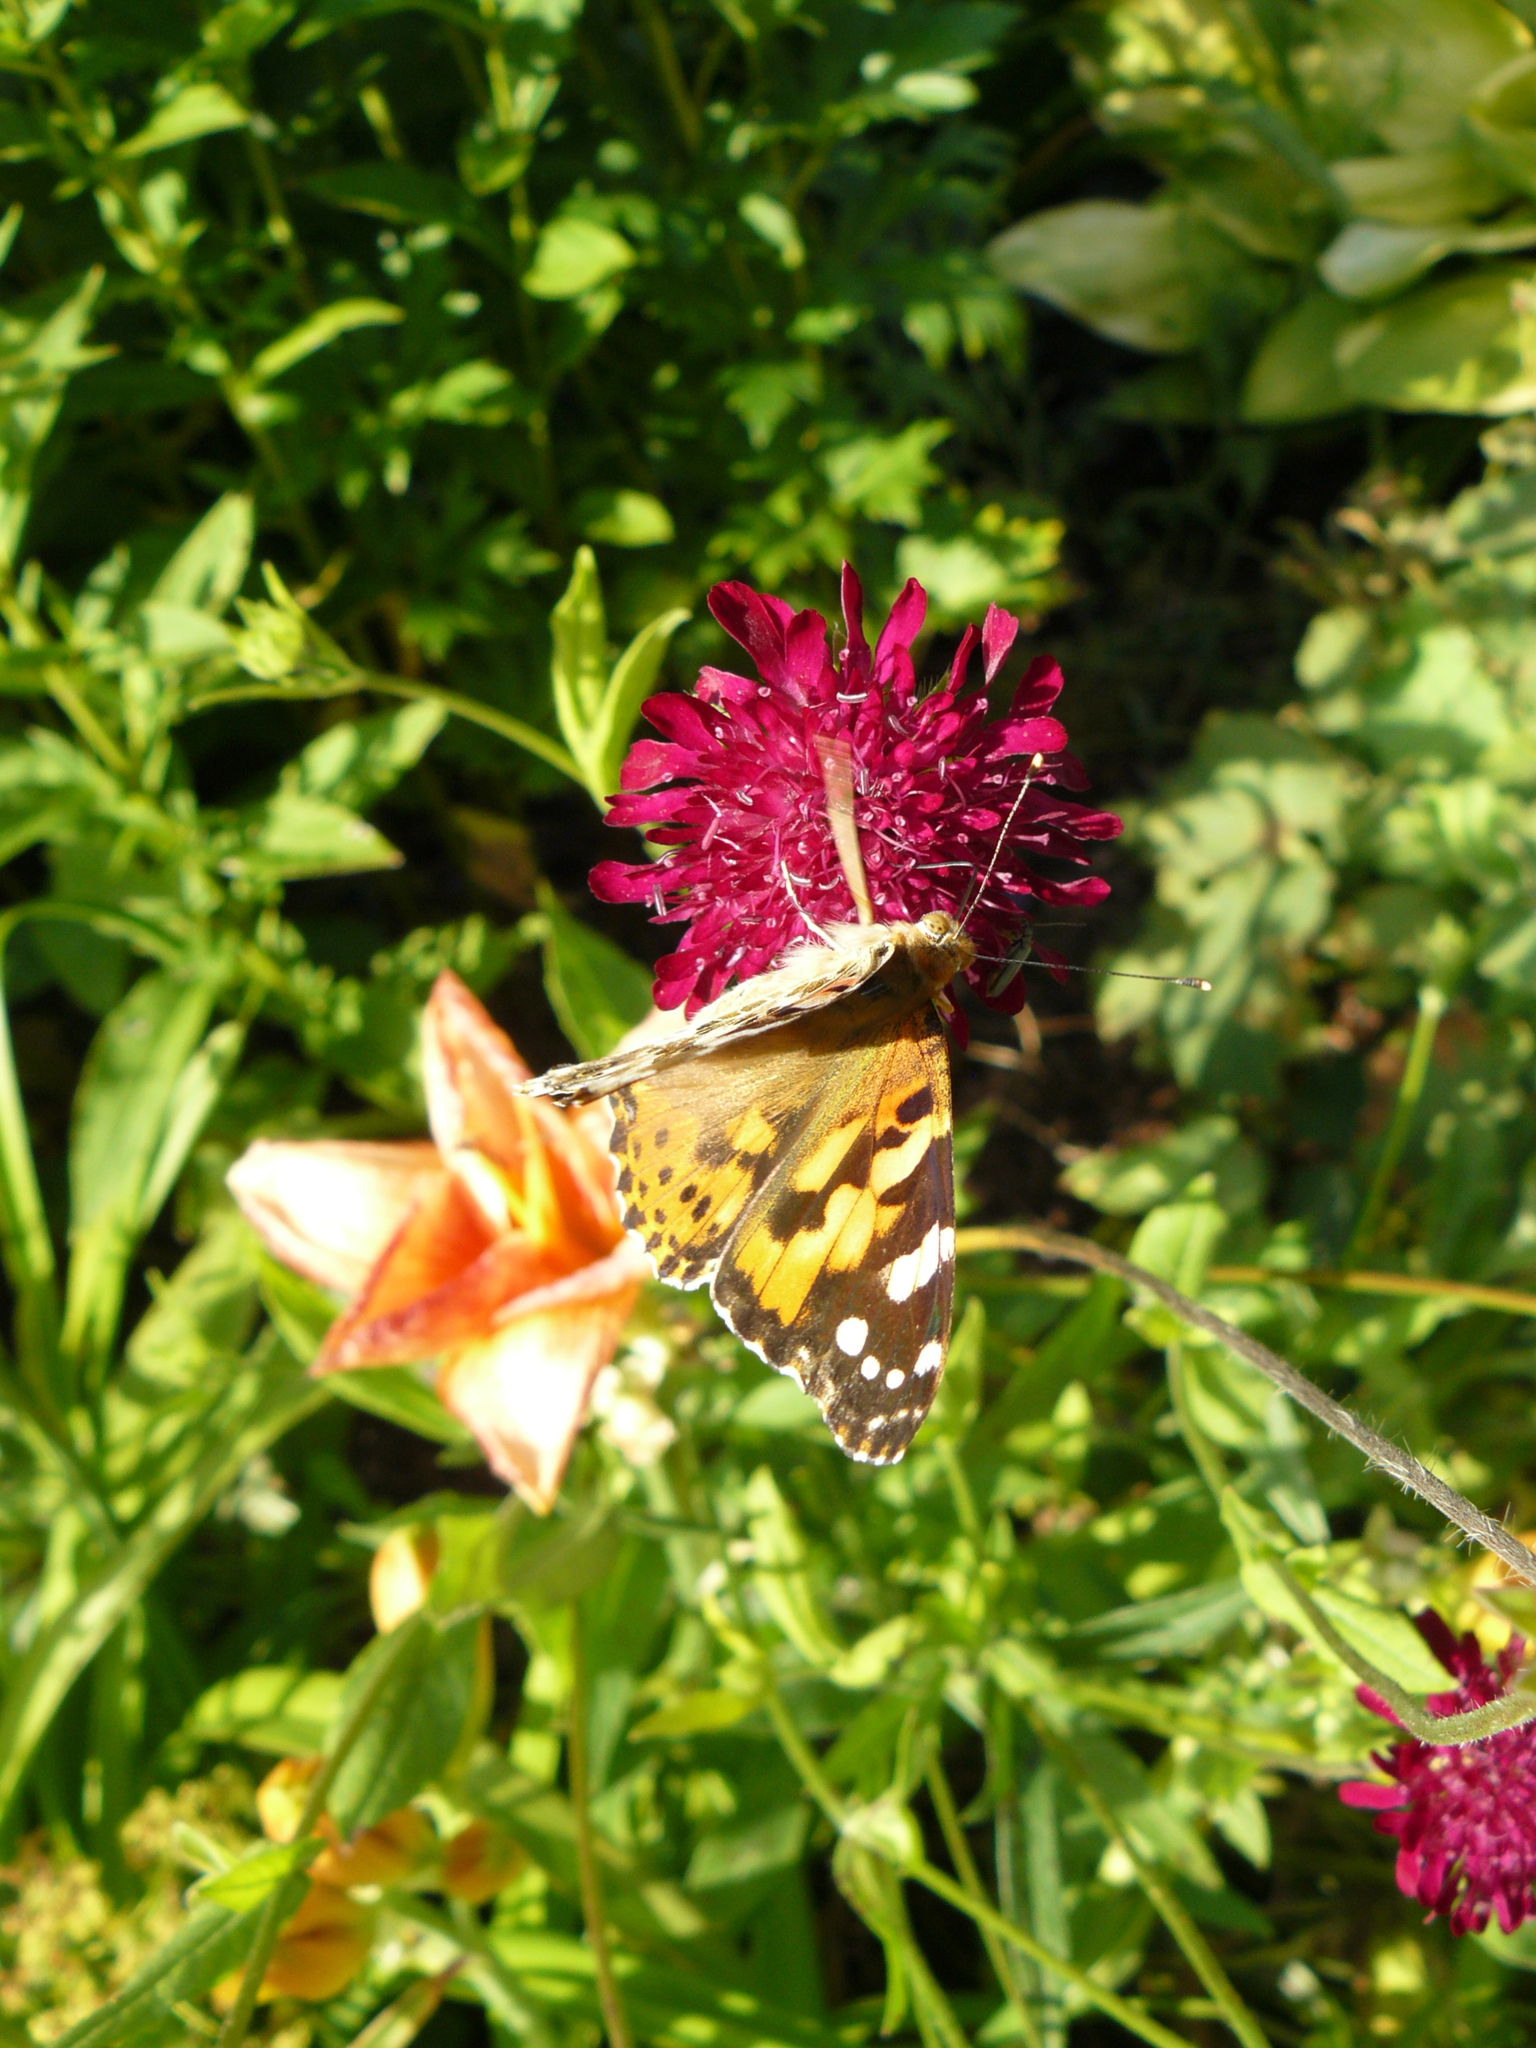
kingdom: Animalia
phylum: Arthropoda
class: Insecta
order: Lepidoptera
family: Nymphalidae
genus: Vanessa
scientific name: Vanessa cardui
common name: Painted lady
